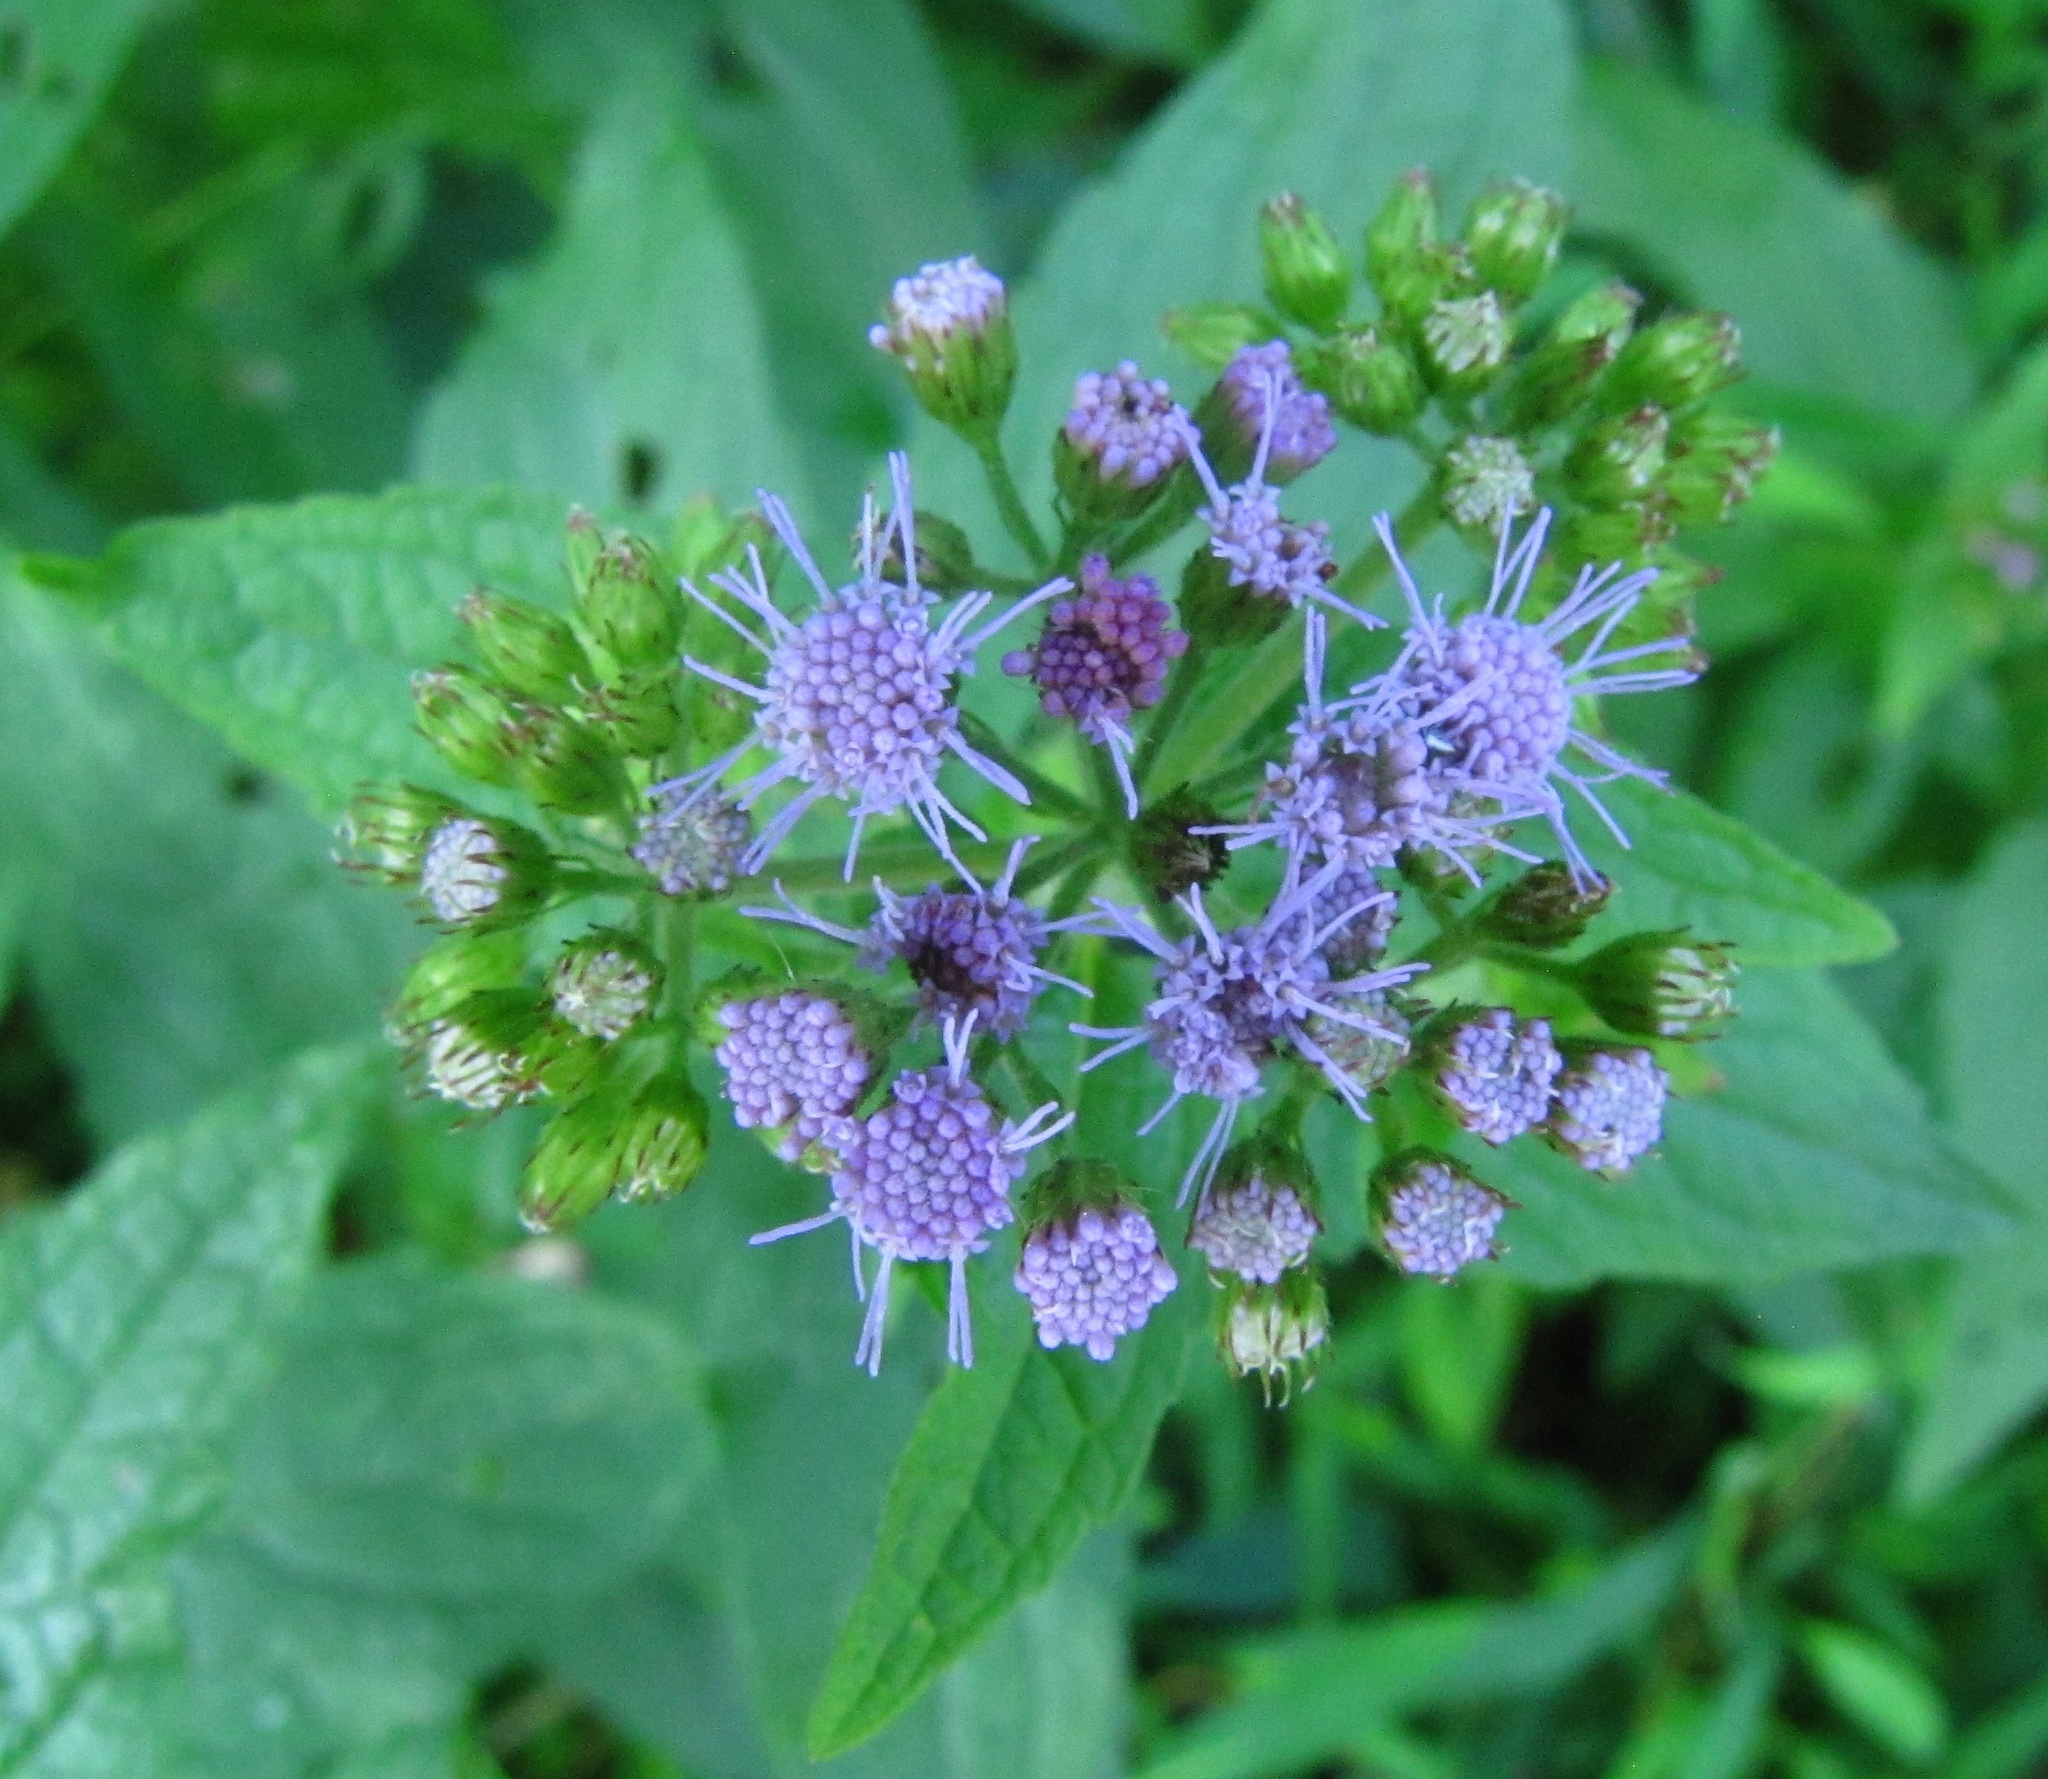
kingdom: Plantae
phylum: Tracheophyta
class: Magnoliopsida
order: Asterales
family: Asteraceae
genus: Conoclinium
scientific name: Conoclinium coelestinum
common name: Blue mistflower
